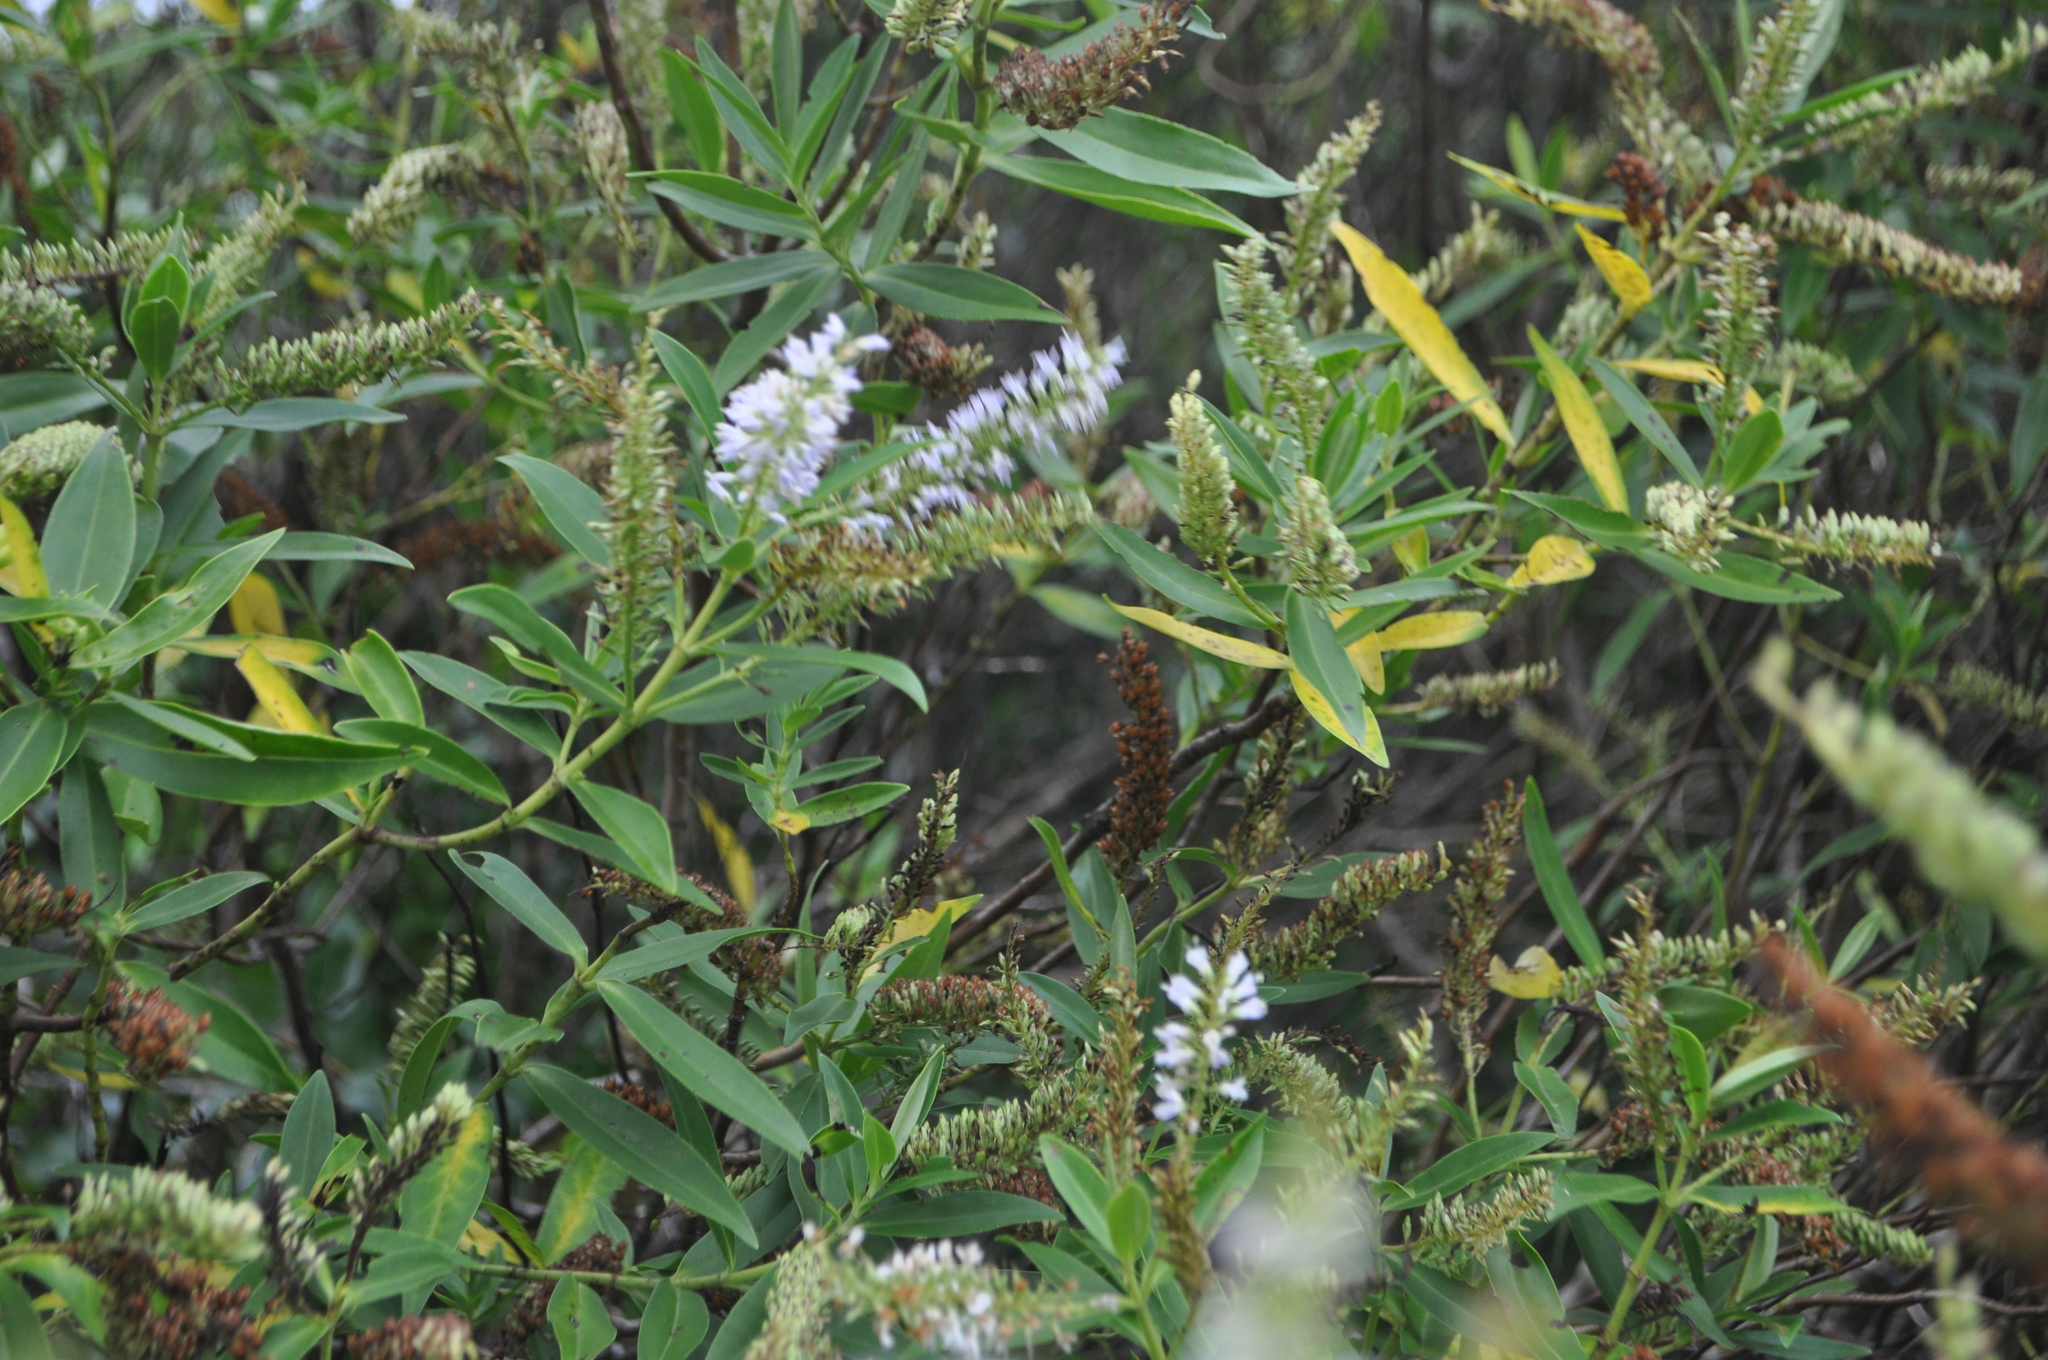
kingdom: Plantae
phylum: Tracheophyta
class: Magnoliopsida
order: Lamiales
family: Plantaginaceae
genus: Veronica
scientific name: Veronica stricta
